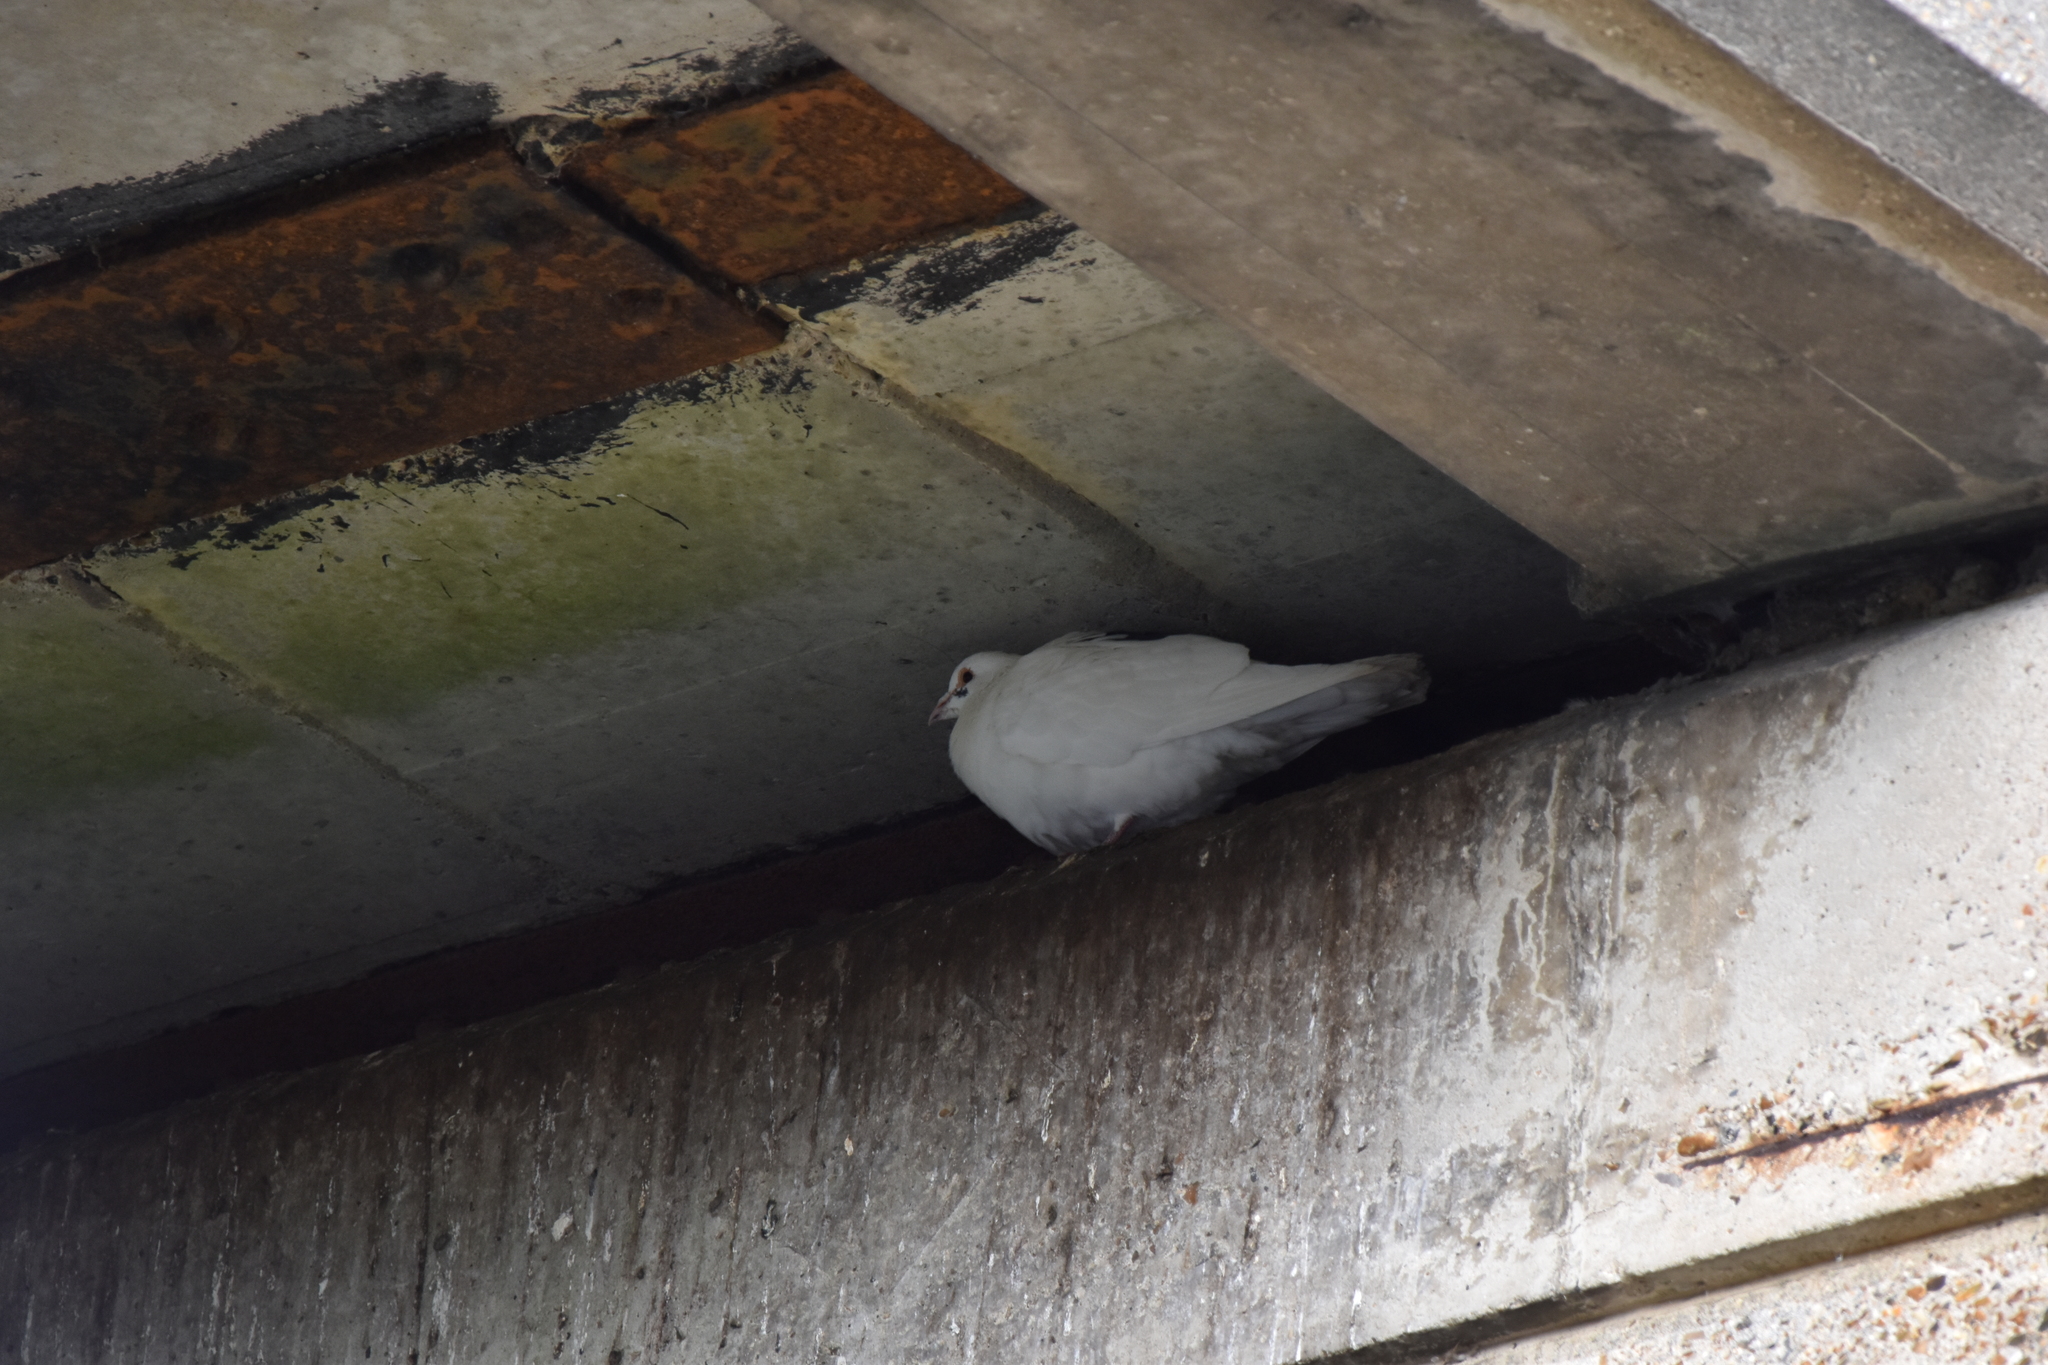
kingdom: Animalia
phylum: Chordata
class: Aves
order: Columbiformes
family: Columbidae
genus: Columba
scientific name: Columba livia
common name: Rock pigeon
